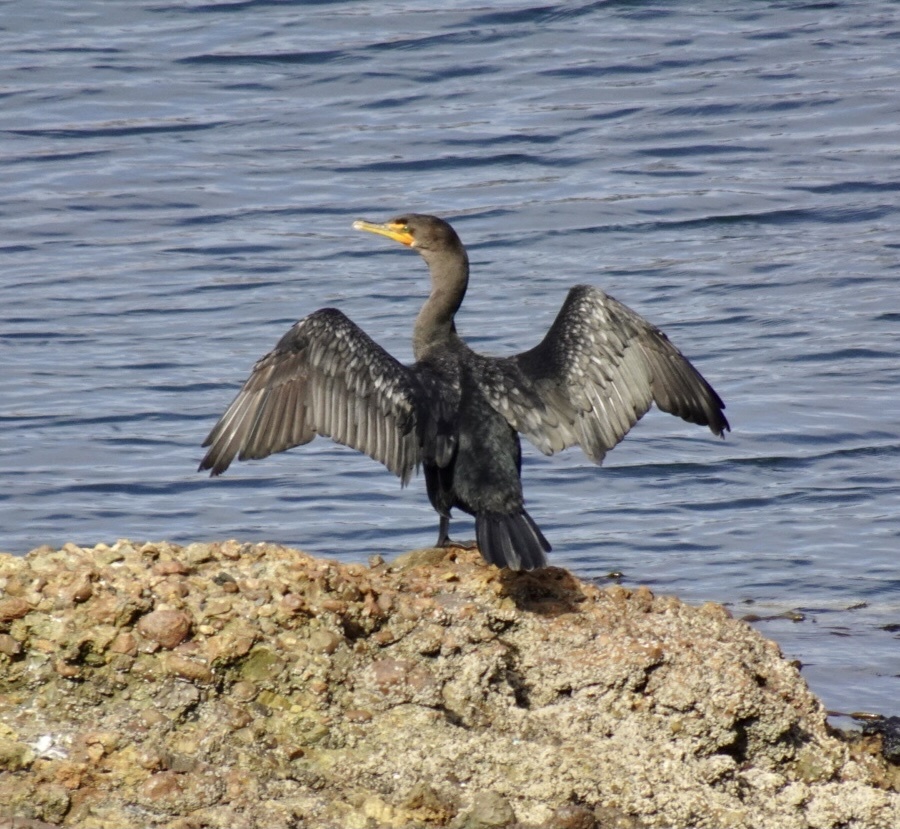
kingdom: Animalia
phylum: Chordata
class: Aves
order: Suliformes
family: Phalacrocoracidae
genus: Phalacrocorax
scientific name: Phalacrocorax auritus
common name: Double-crested cormorant
